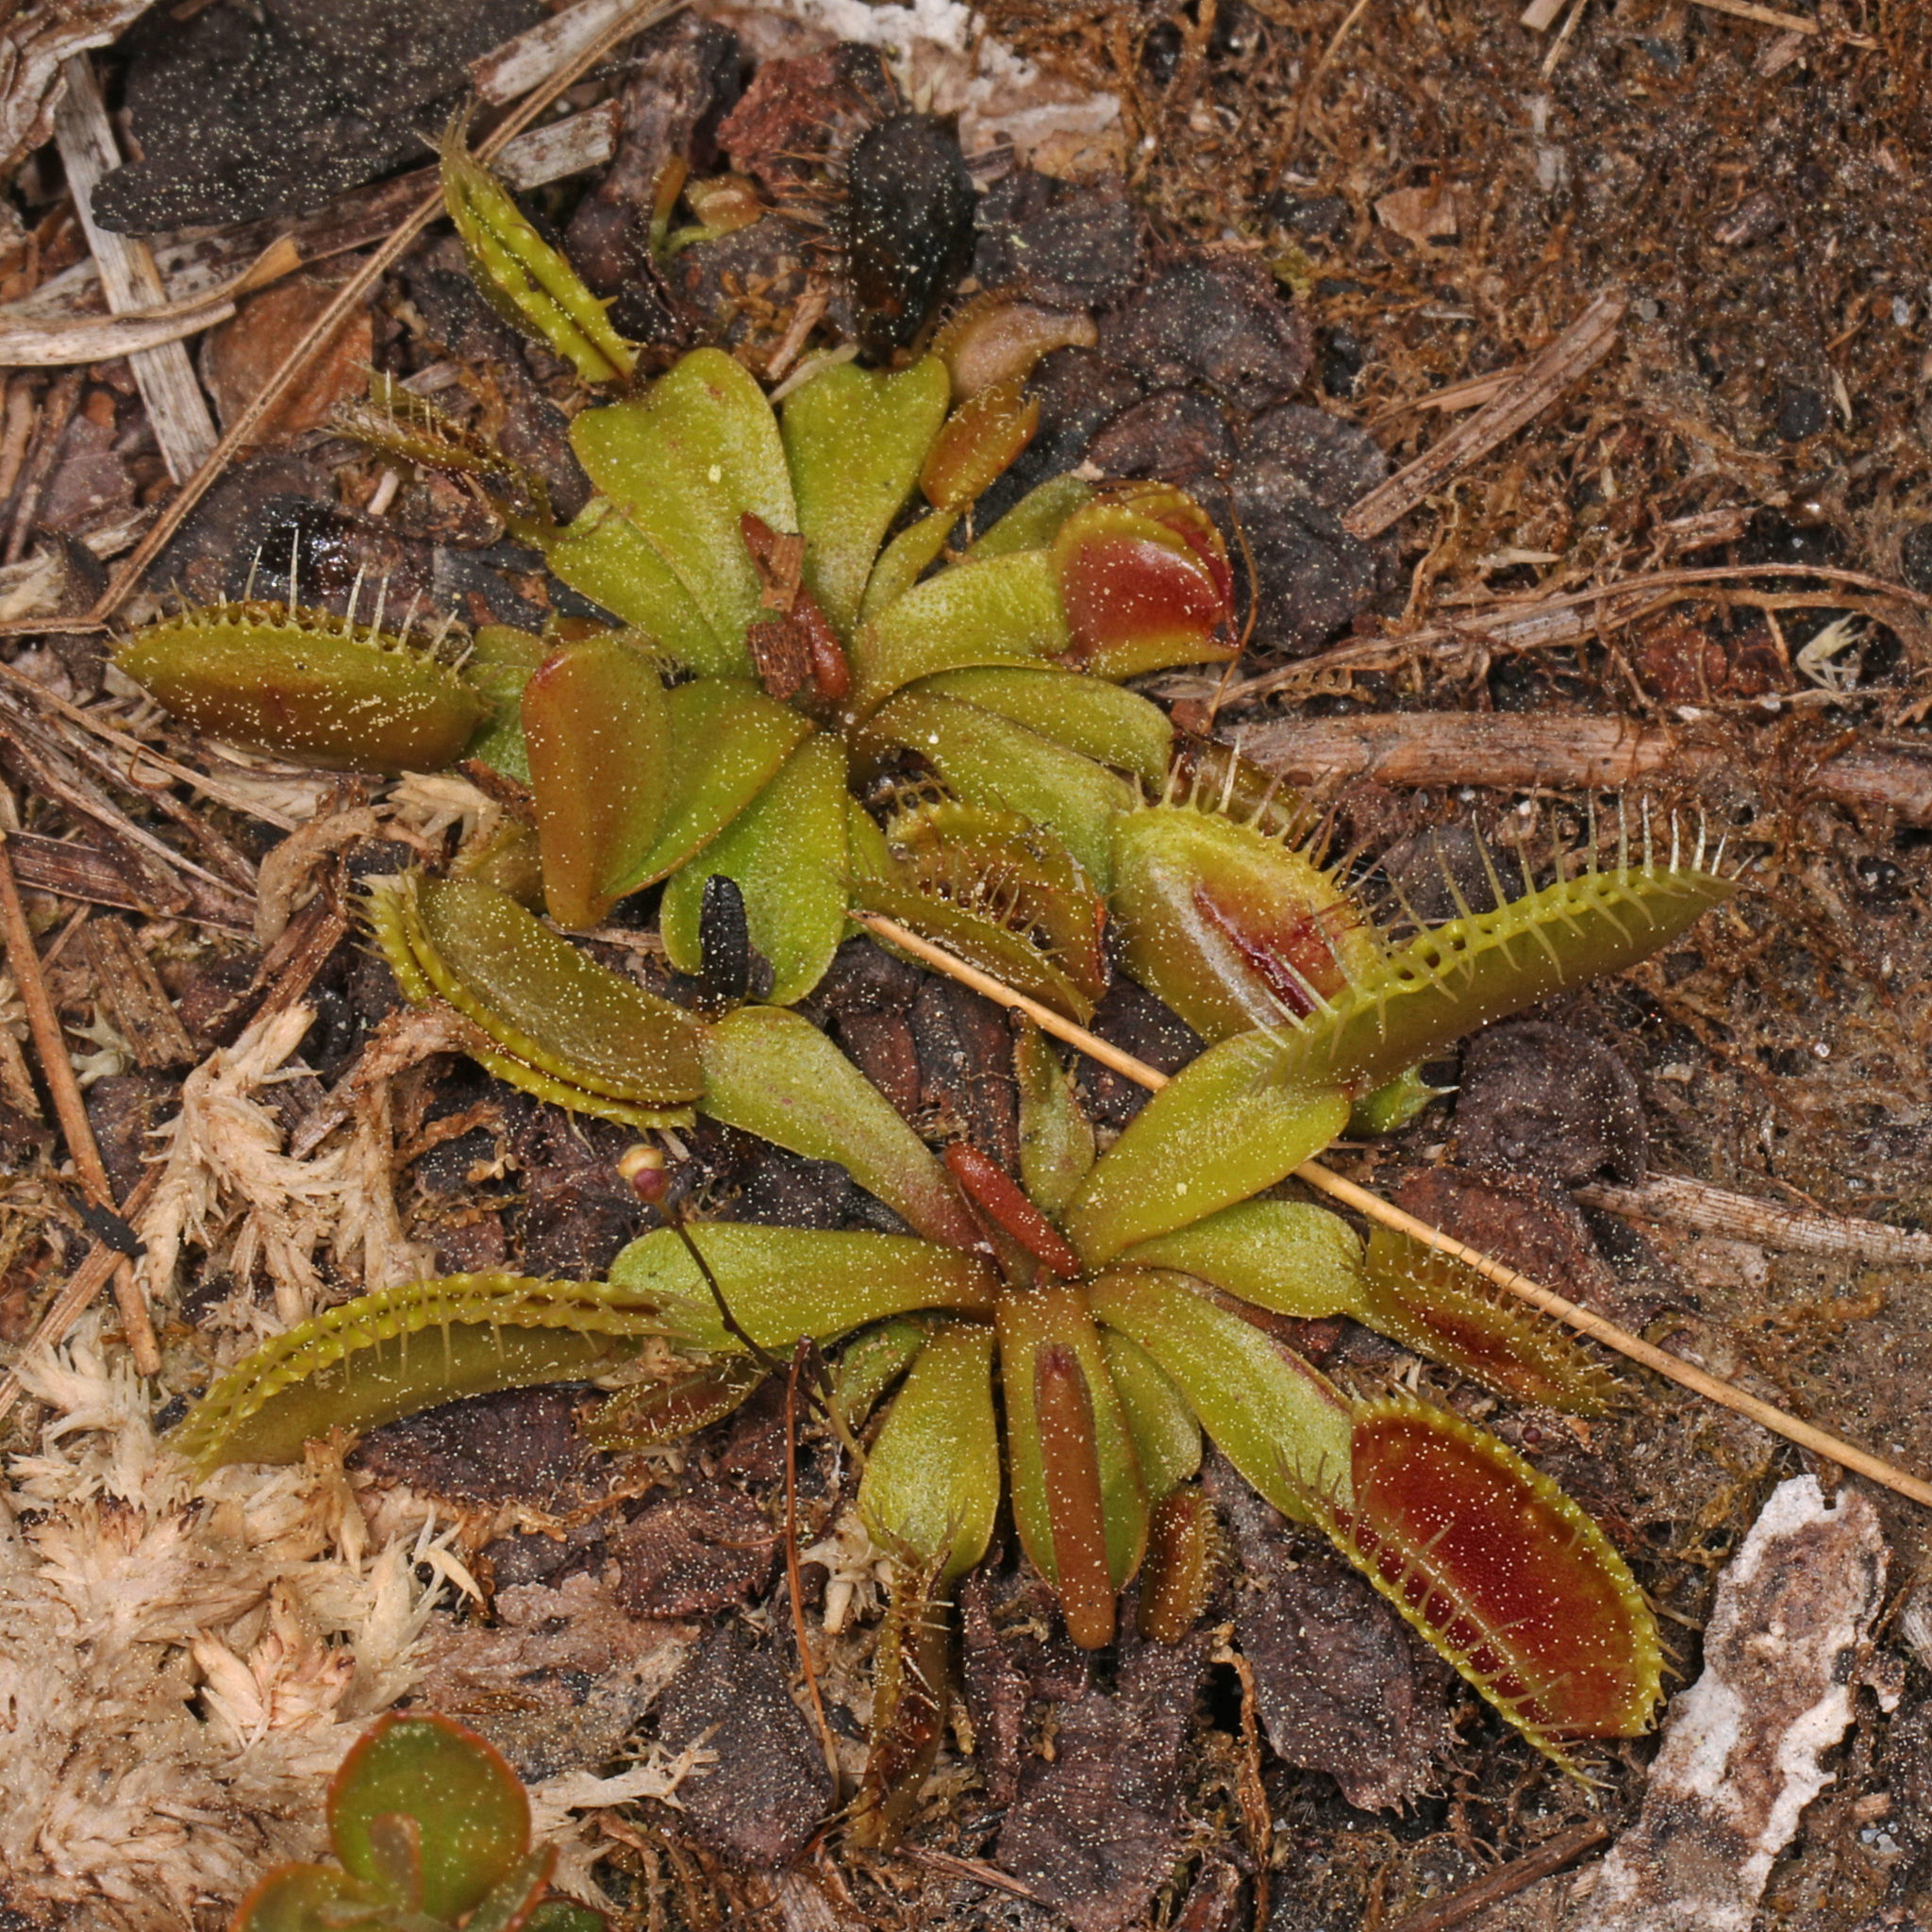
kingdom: Plantae
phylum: Tracheophyta
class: Magnoliopsida
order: Caryophyllales
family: Droseraceae
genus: Dionaea
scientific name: Dionaea muscipula
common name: Venus flytrap
